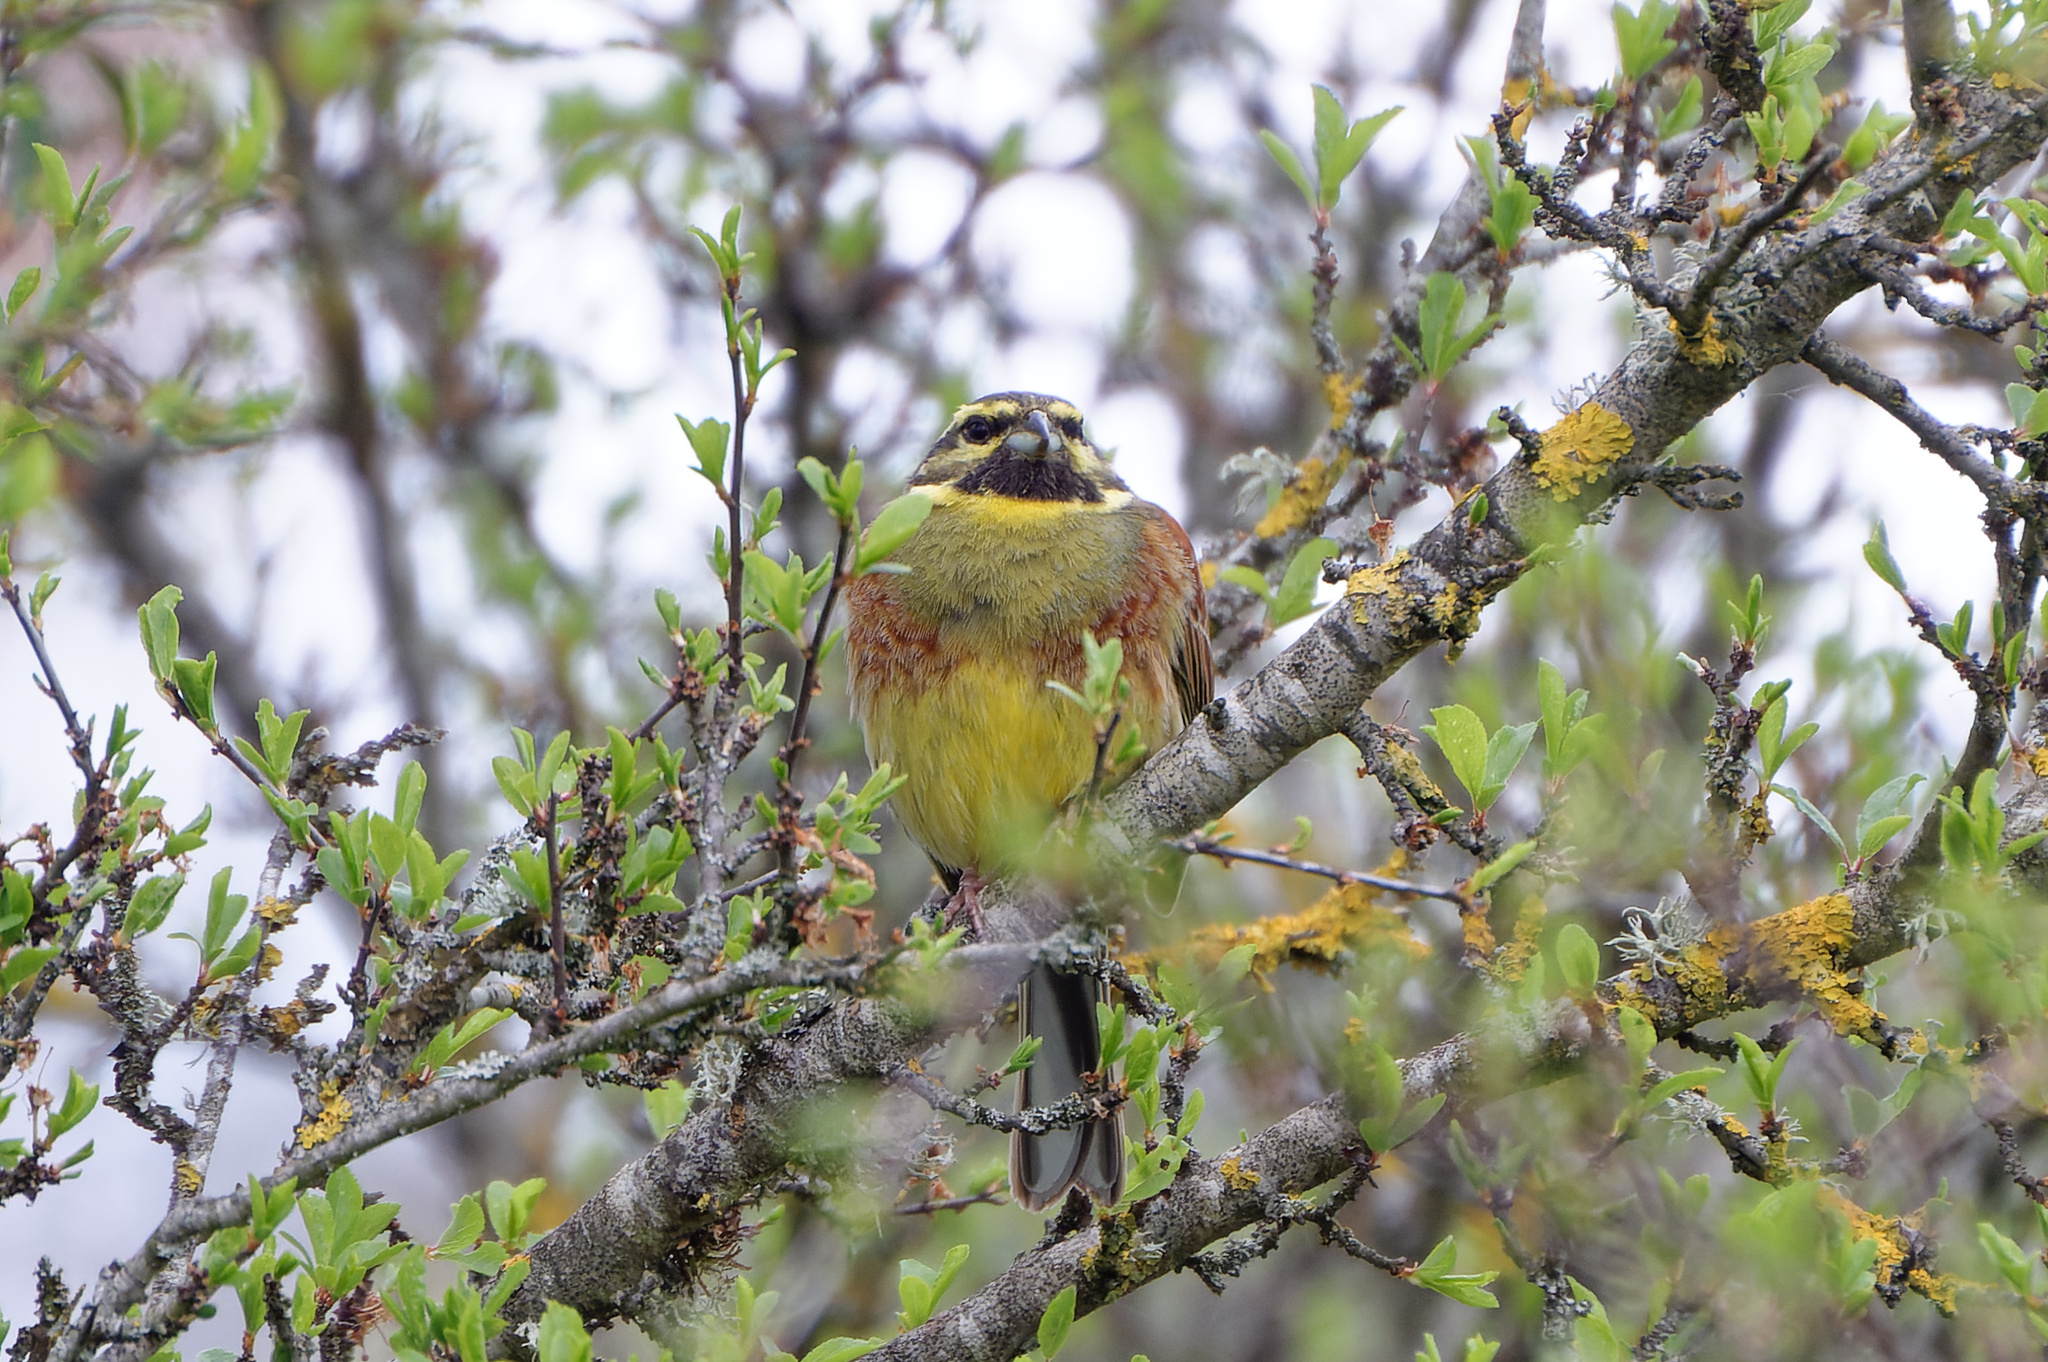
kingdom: Animalia
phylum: Chordata
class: Aves
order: Passeriformes
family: Emberizidae
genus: Emberiza
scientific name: Emberiza cirlus
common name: Cirl bunting
